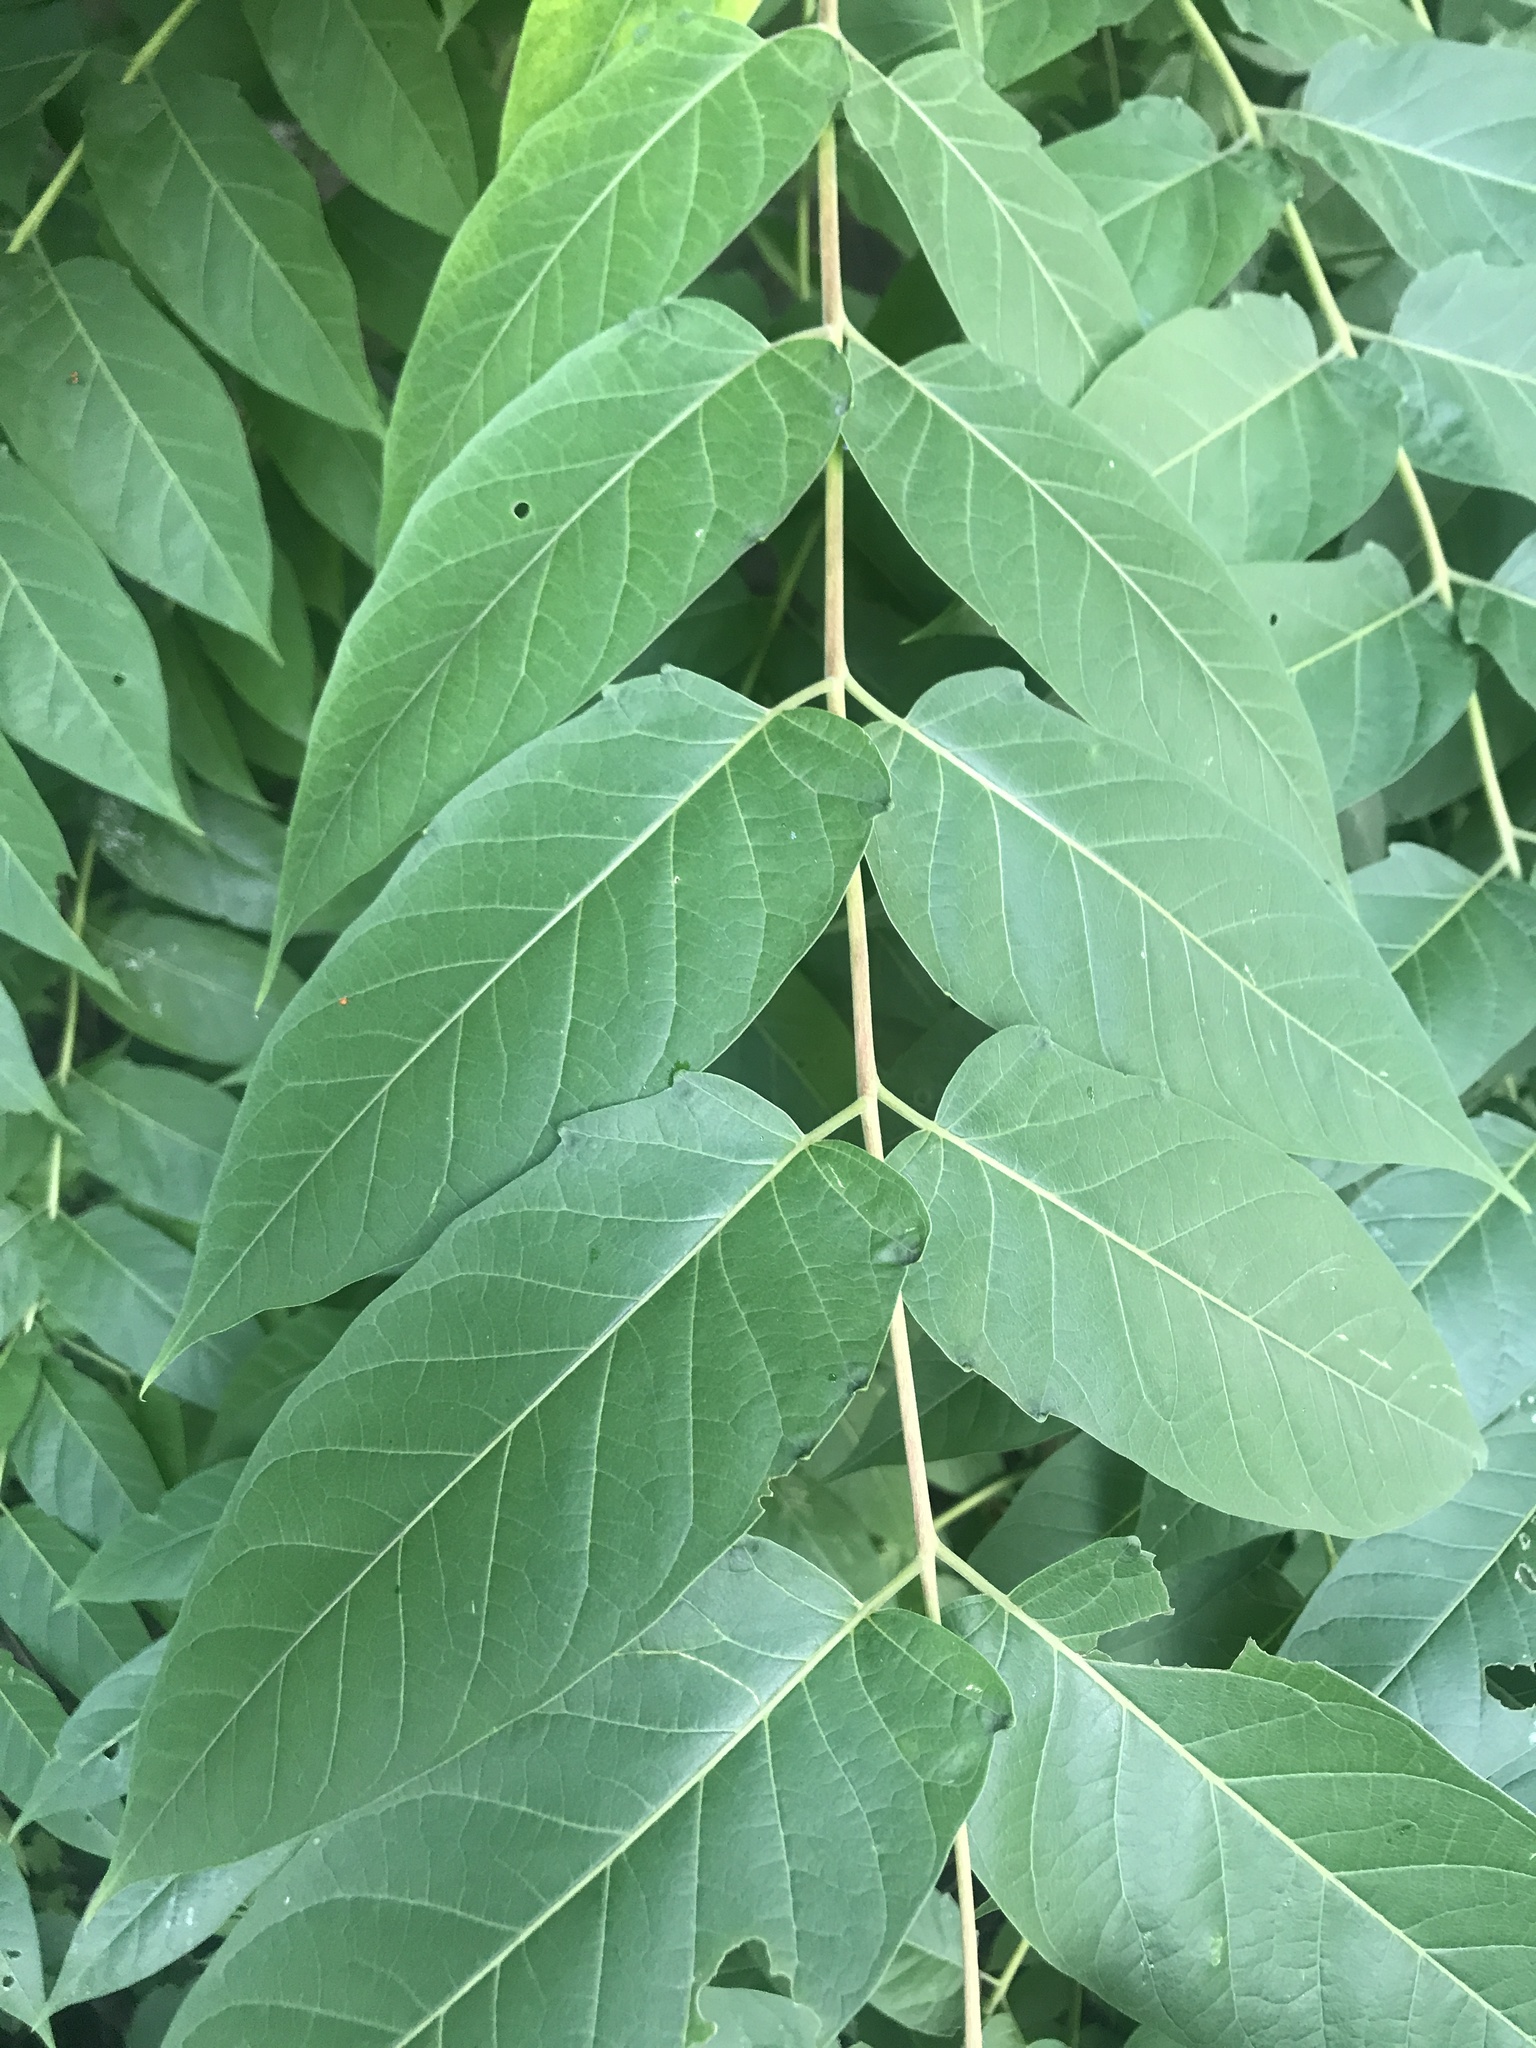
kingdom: Plantae
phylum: Tracheophyta
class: Magnoliopsida
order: Sapindales
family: Simaroubaceae
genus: Ailanthus
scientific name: Ailanthus altissima
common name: Tree-of-heaven
